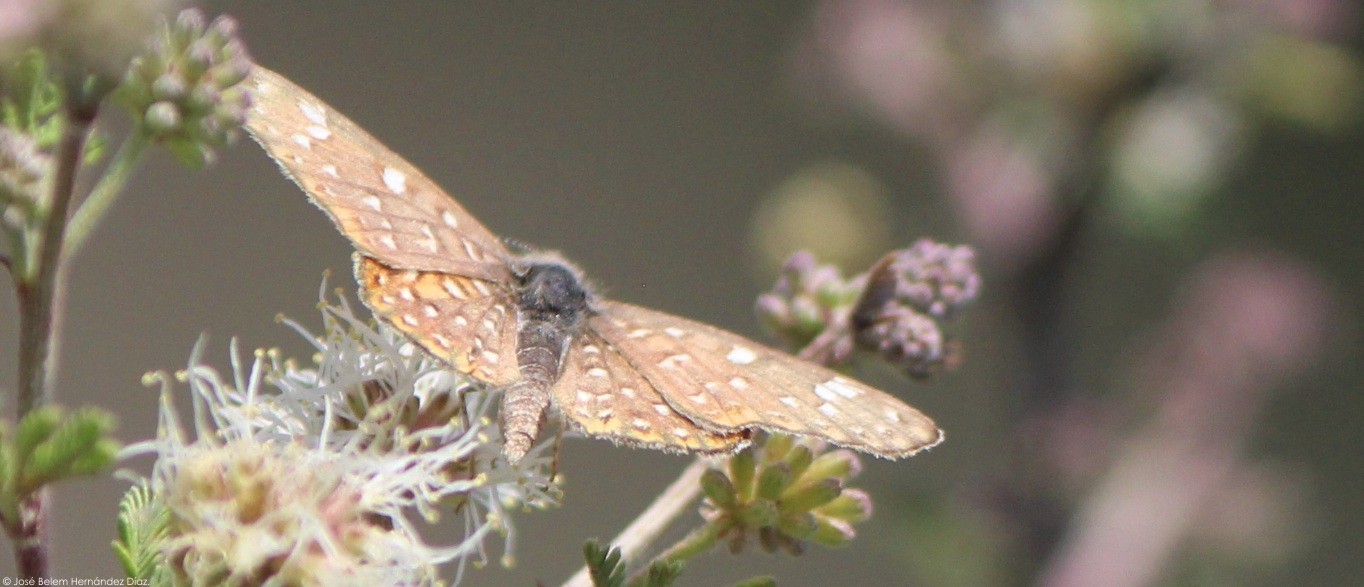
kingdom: Animalia
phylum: Arthropoda
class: Insecta
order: Lepidoptera
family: Riodinidae
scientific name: Riodinidae
